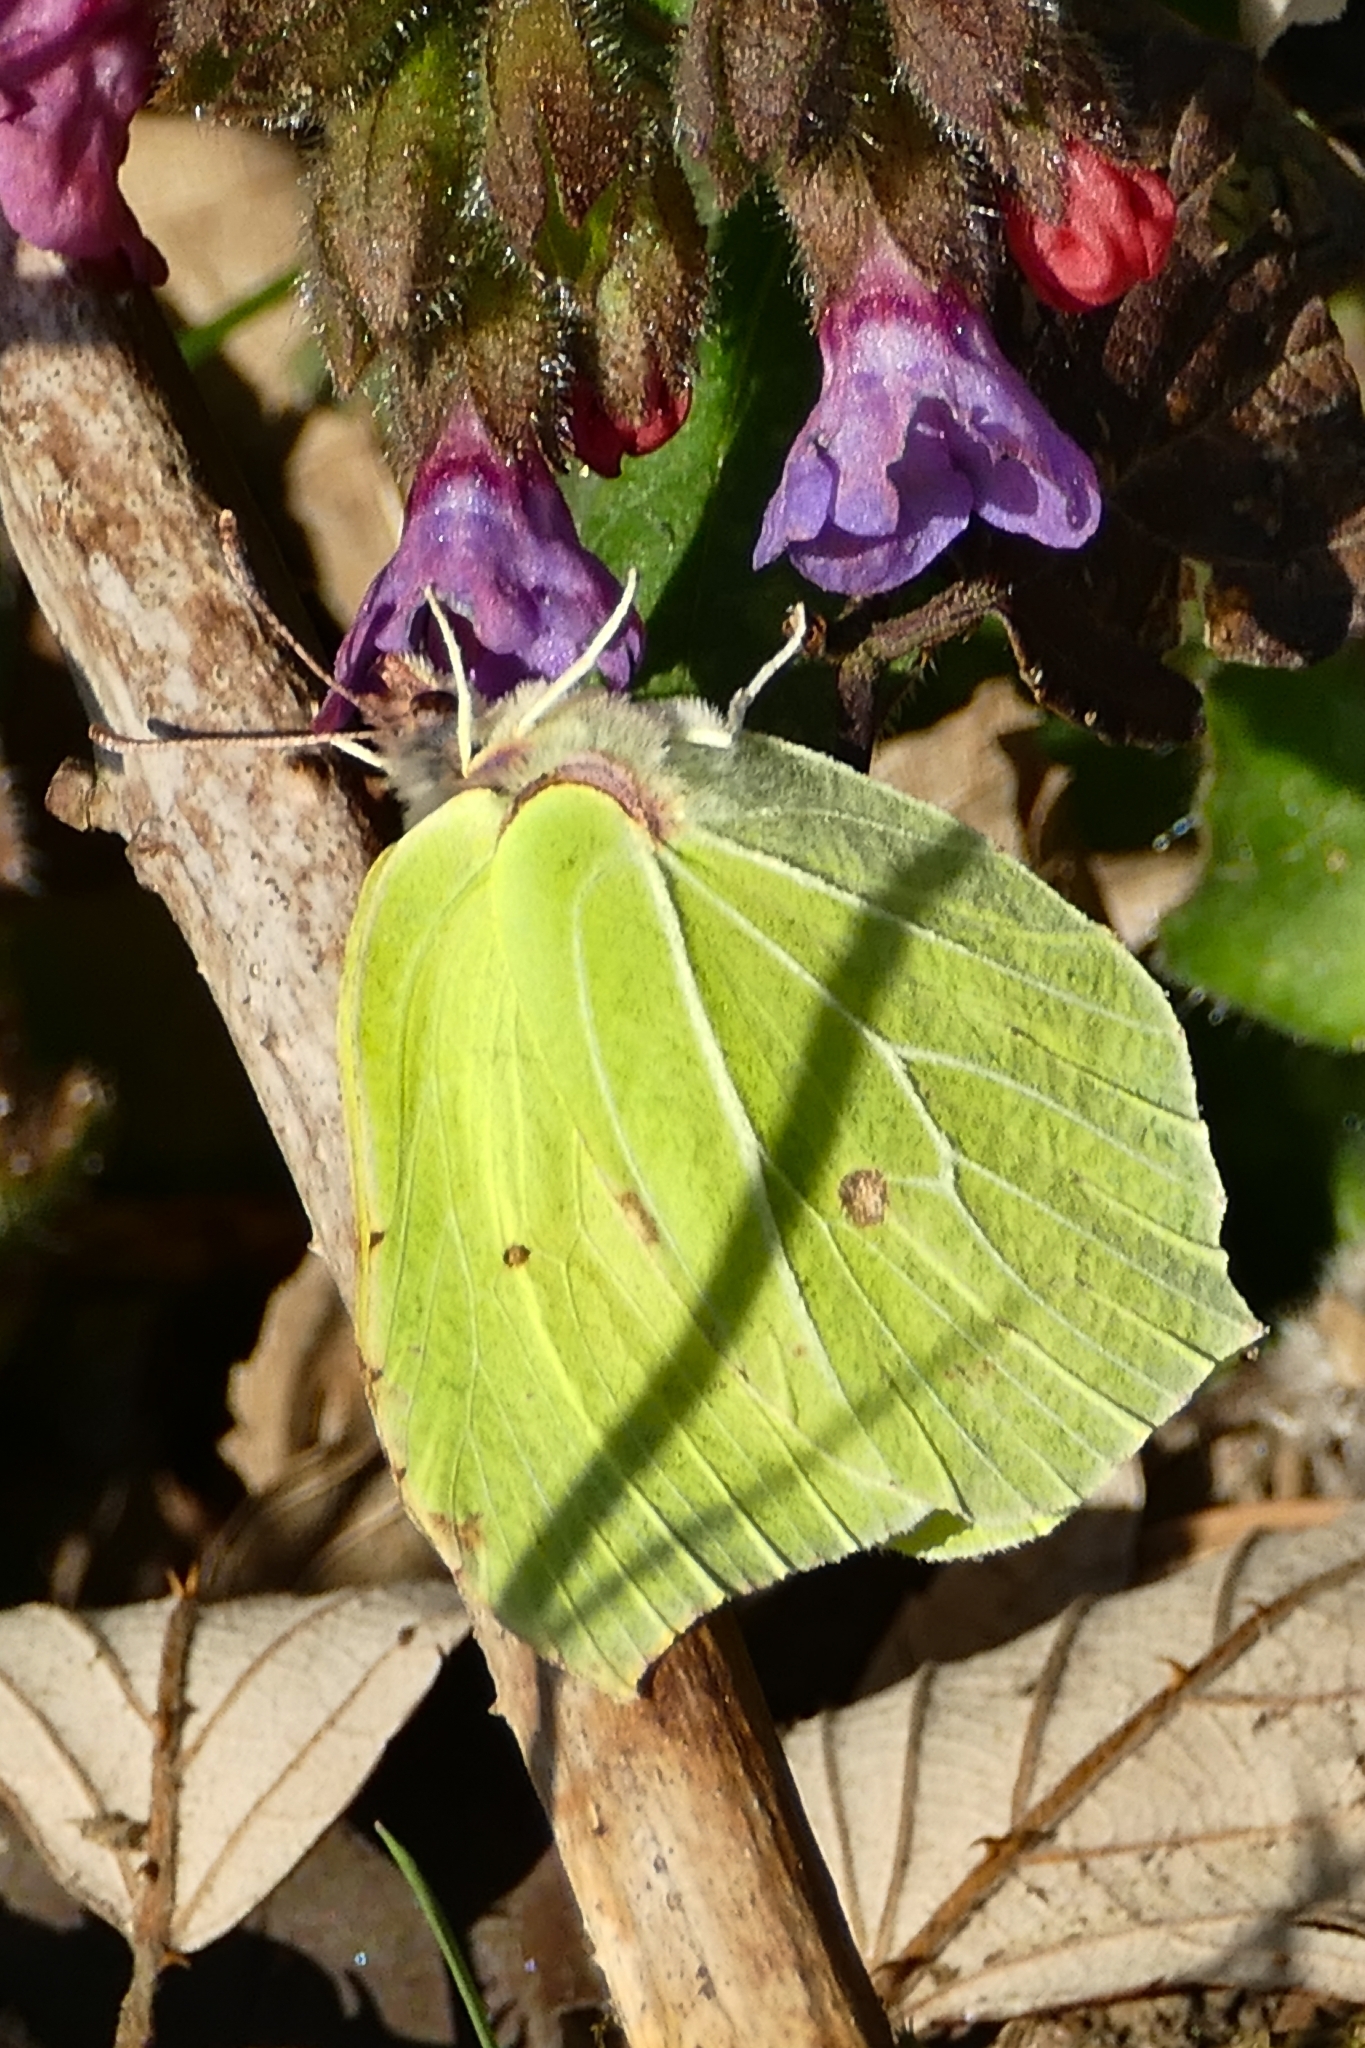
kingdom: Animalia
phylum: Arthropoda
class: Insecta
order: Lepidoptera
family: Pieridae
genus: Gonepteryx
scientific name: Gonepteryx rhamni
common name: Brimstone
